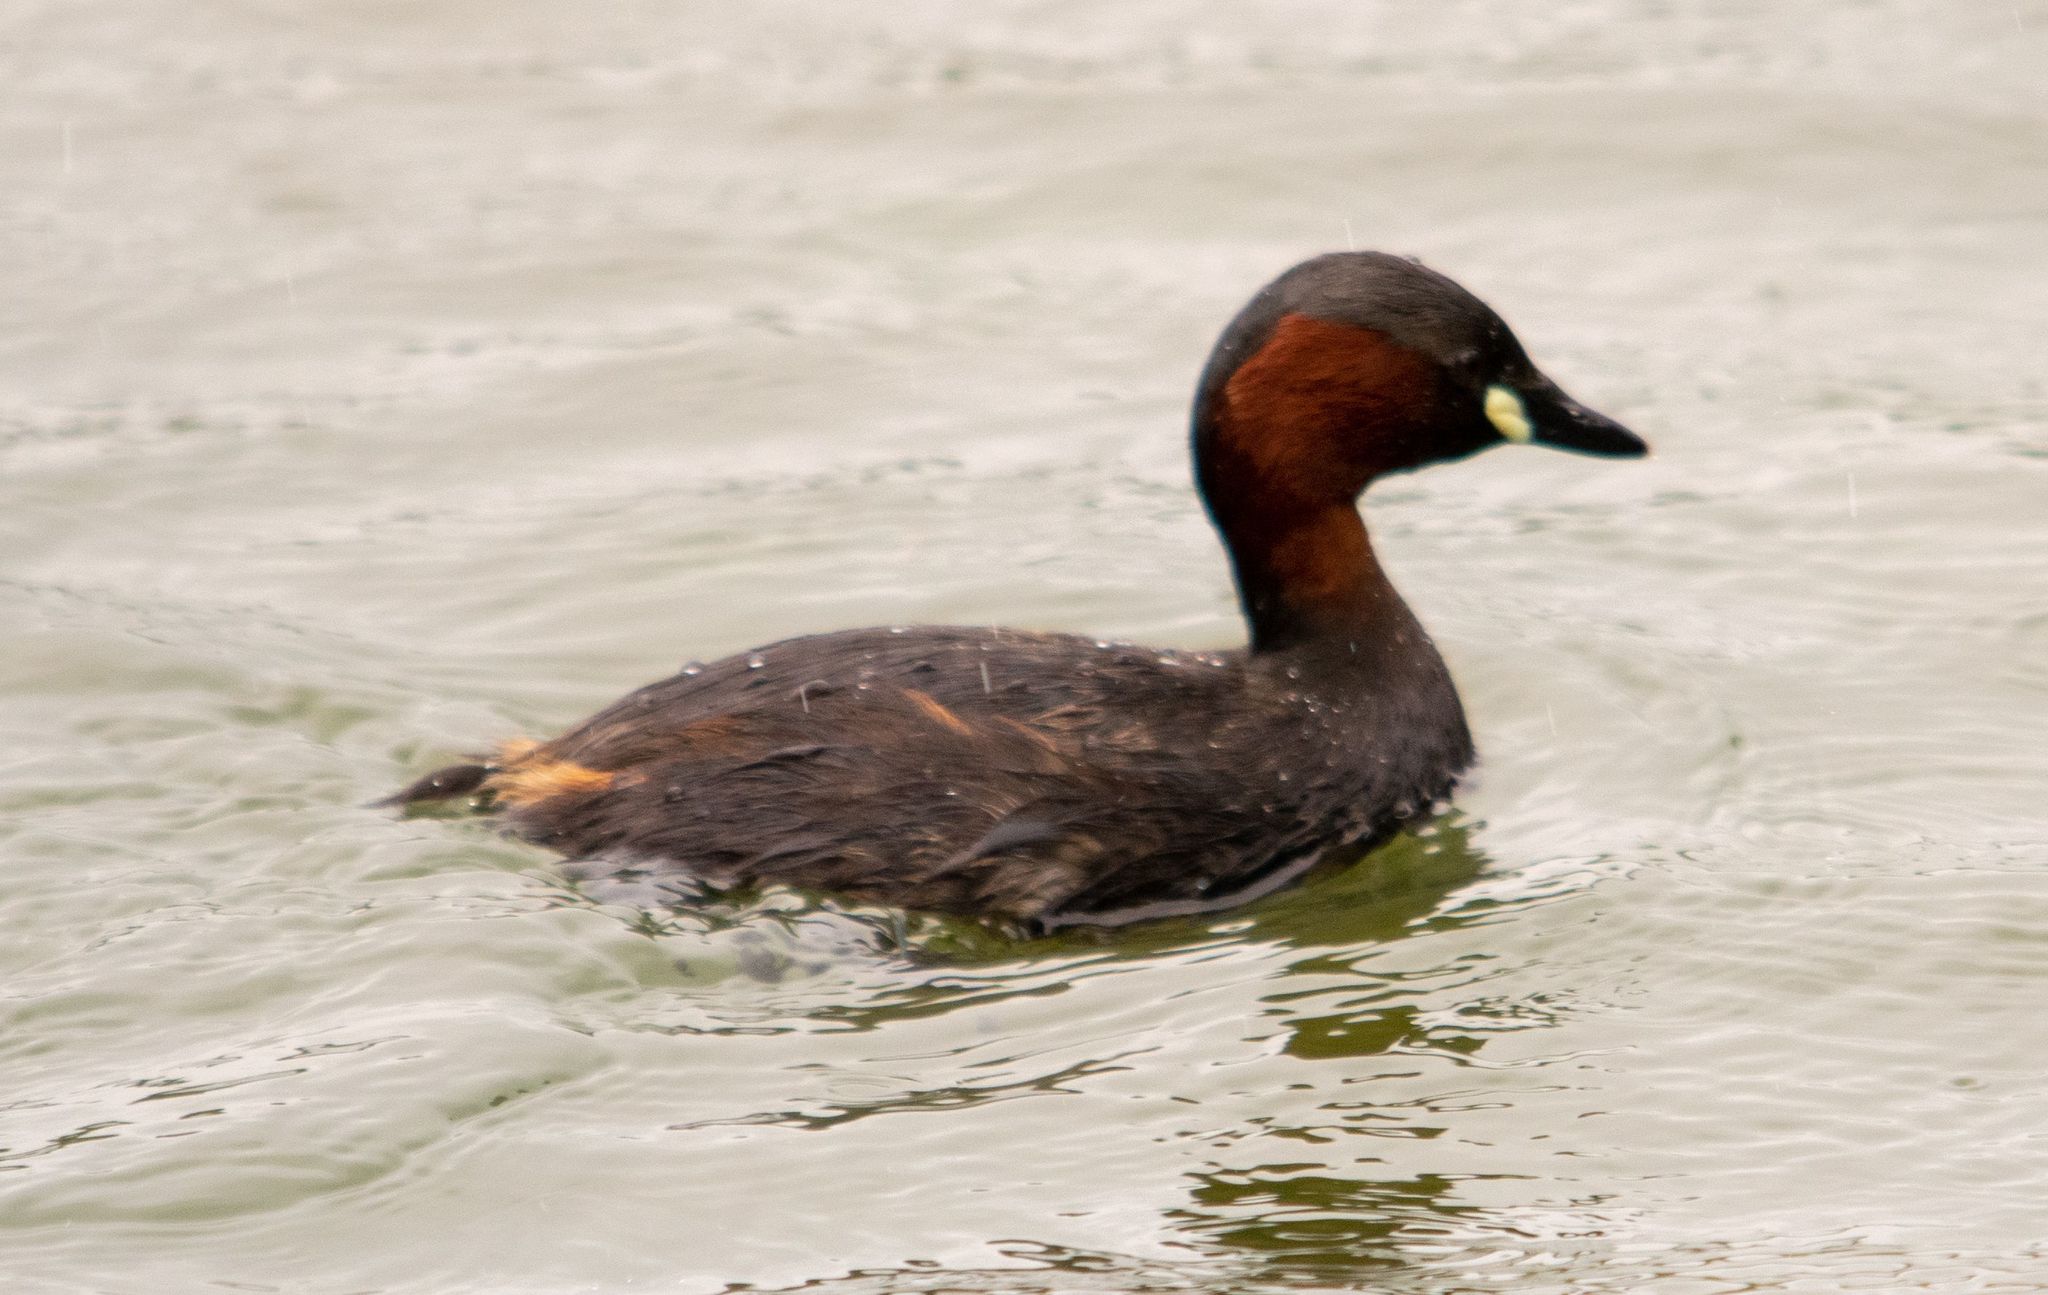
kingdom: Animalia
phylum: Chordata
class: Aves
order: Podicipediformes
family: Podicipedidae
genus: Tachybaptus
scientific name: Tachybaptus ruficollis
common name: Little grebe
